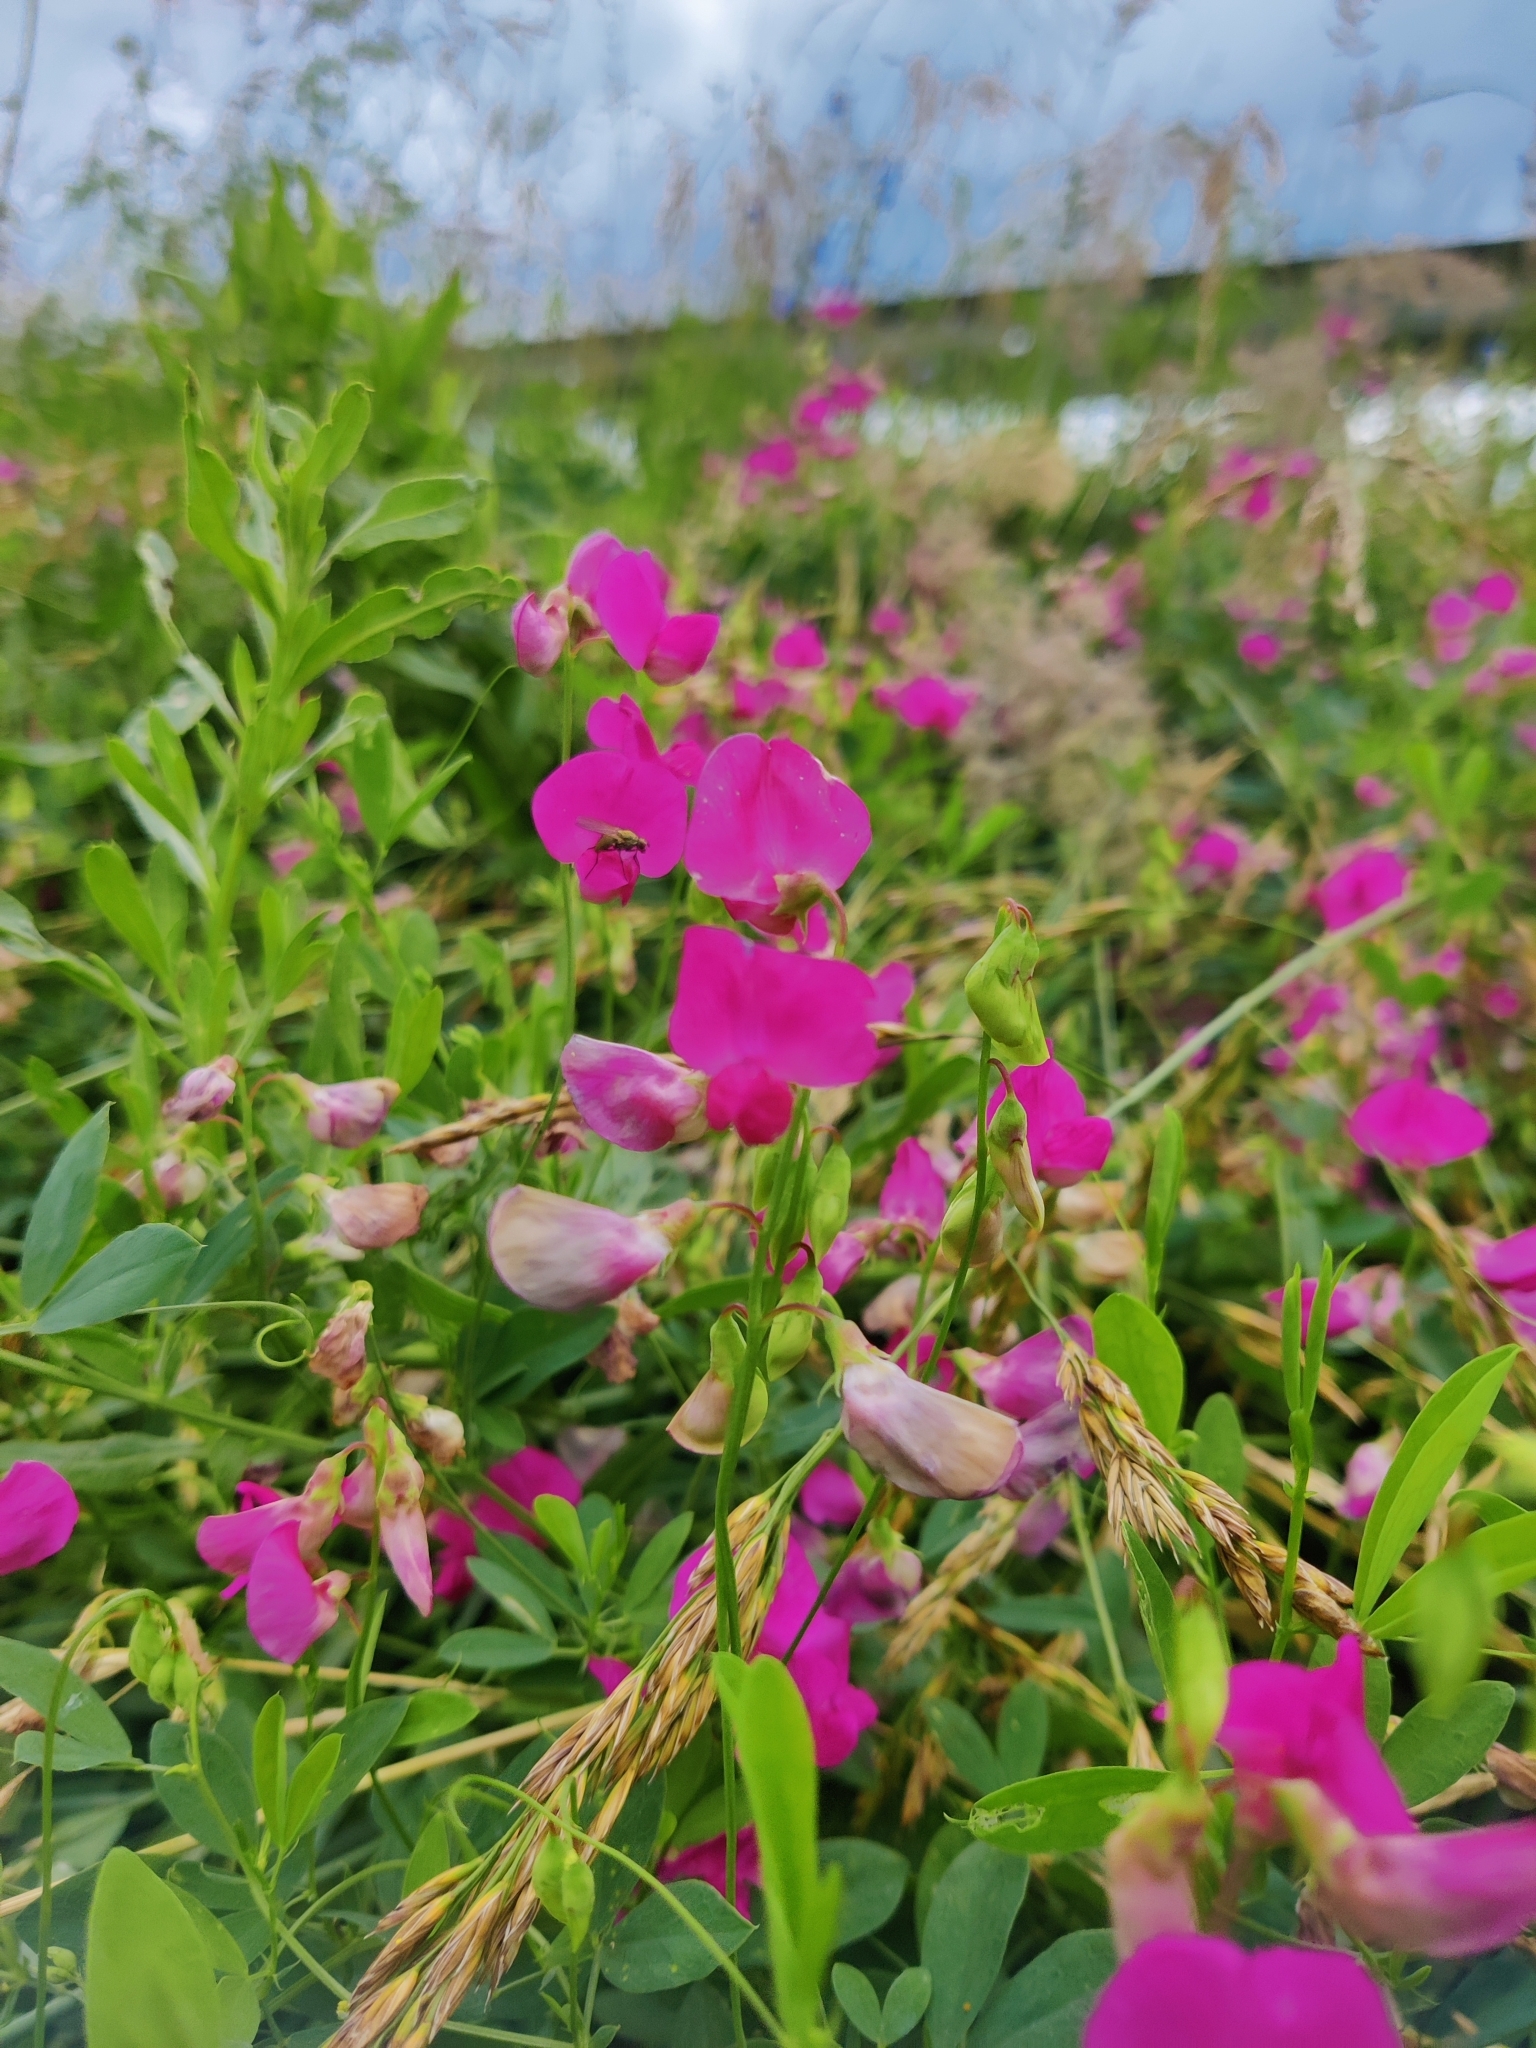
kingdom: Plantae
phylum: Tracheophyta
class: Magnoliopsida
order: Fabales
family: Fabaceae
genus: Lathyrus
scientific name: Lathyrus tuberosus
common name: Tuberous pea
